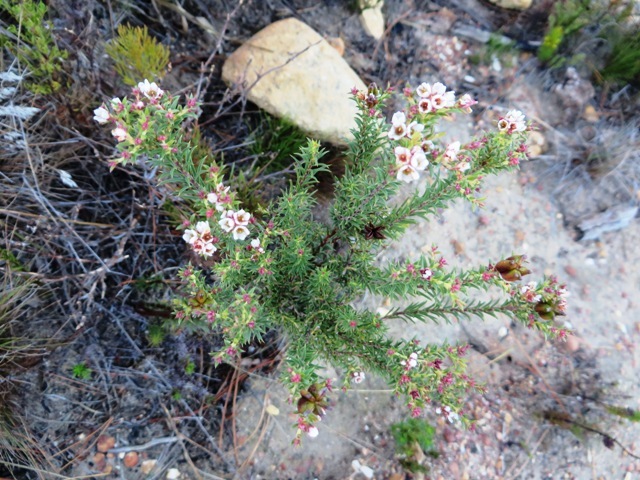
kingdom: Plantae
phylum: Tracheophyta
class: Magnoliopsida
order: Sapindales
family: Rutaceae
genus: Diosma
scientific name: Diosma hirsuta
